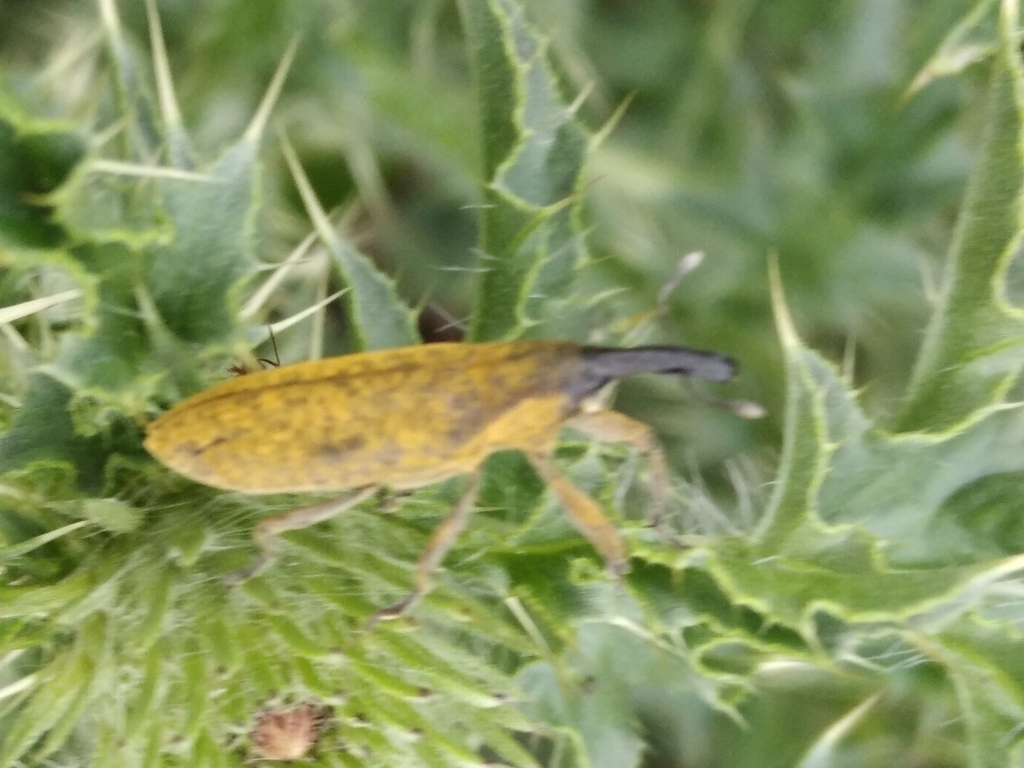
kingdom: Animalia
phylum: Arthropoda
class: Insecta
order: Coleoptera
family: Curculionidae
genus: Lixus
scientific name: Lixus pulverulentus
